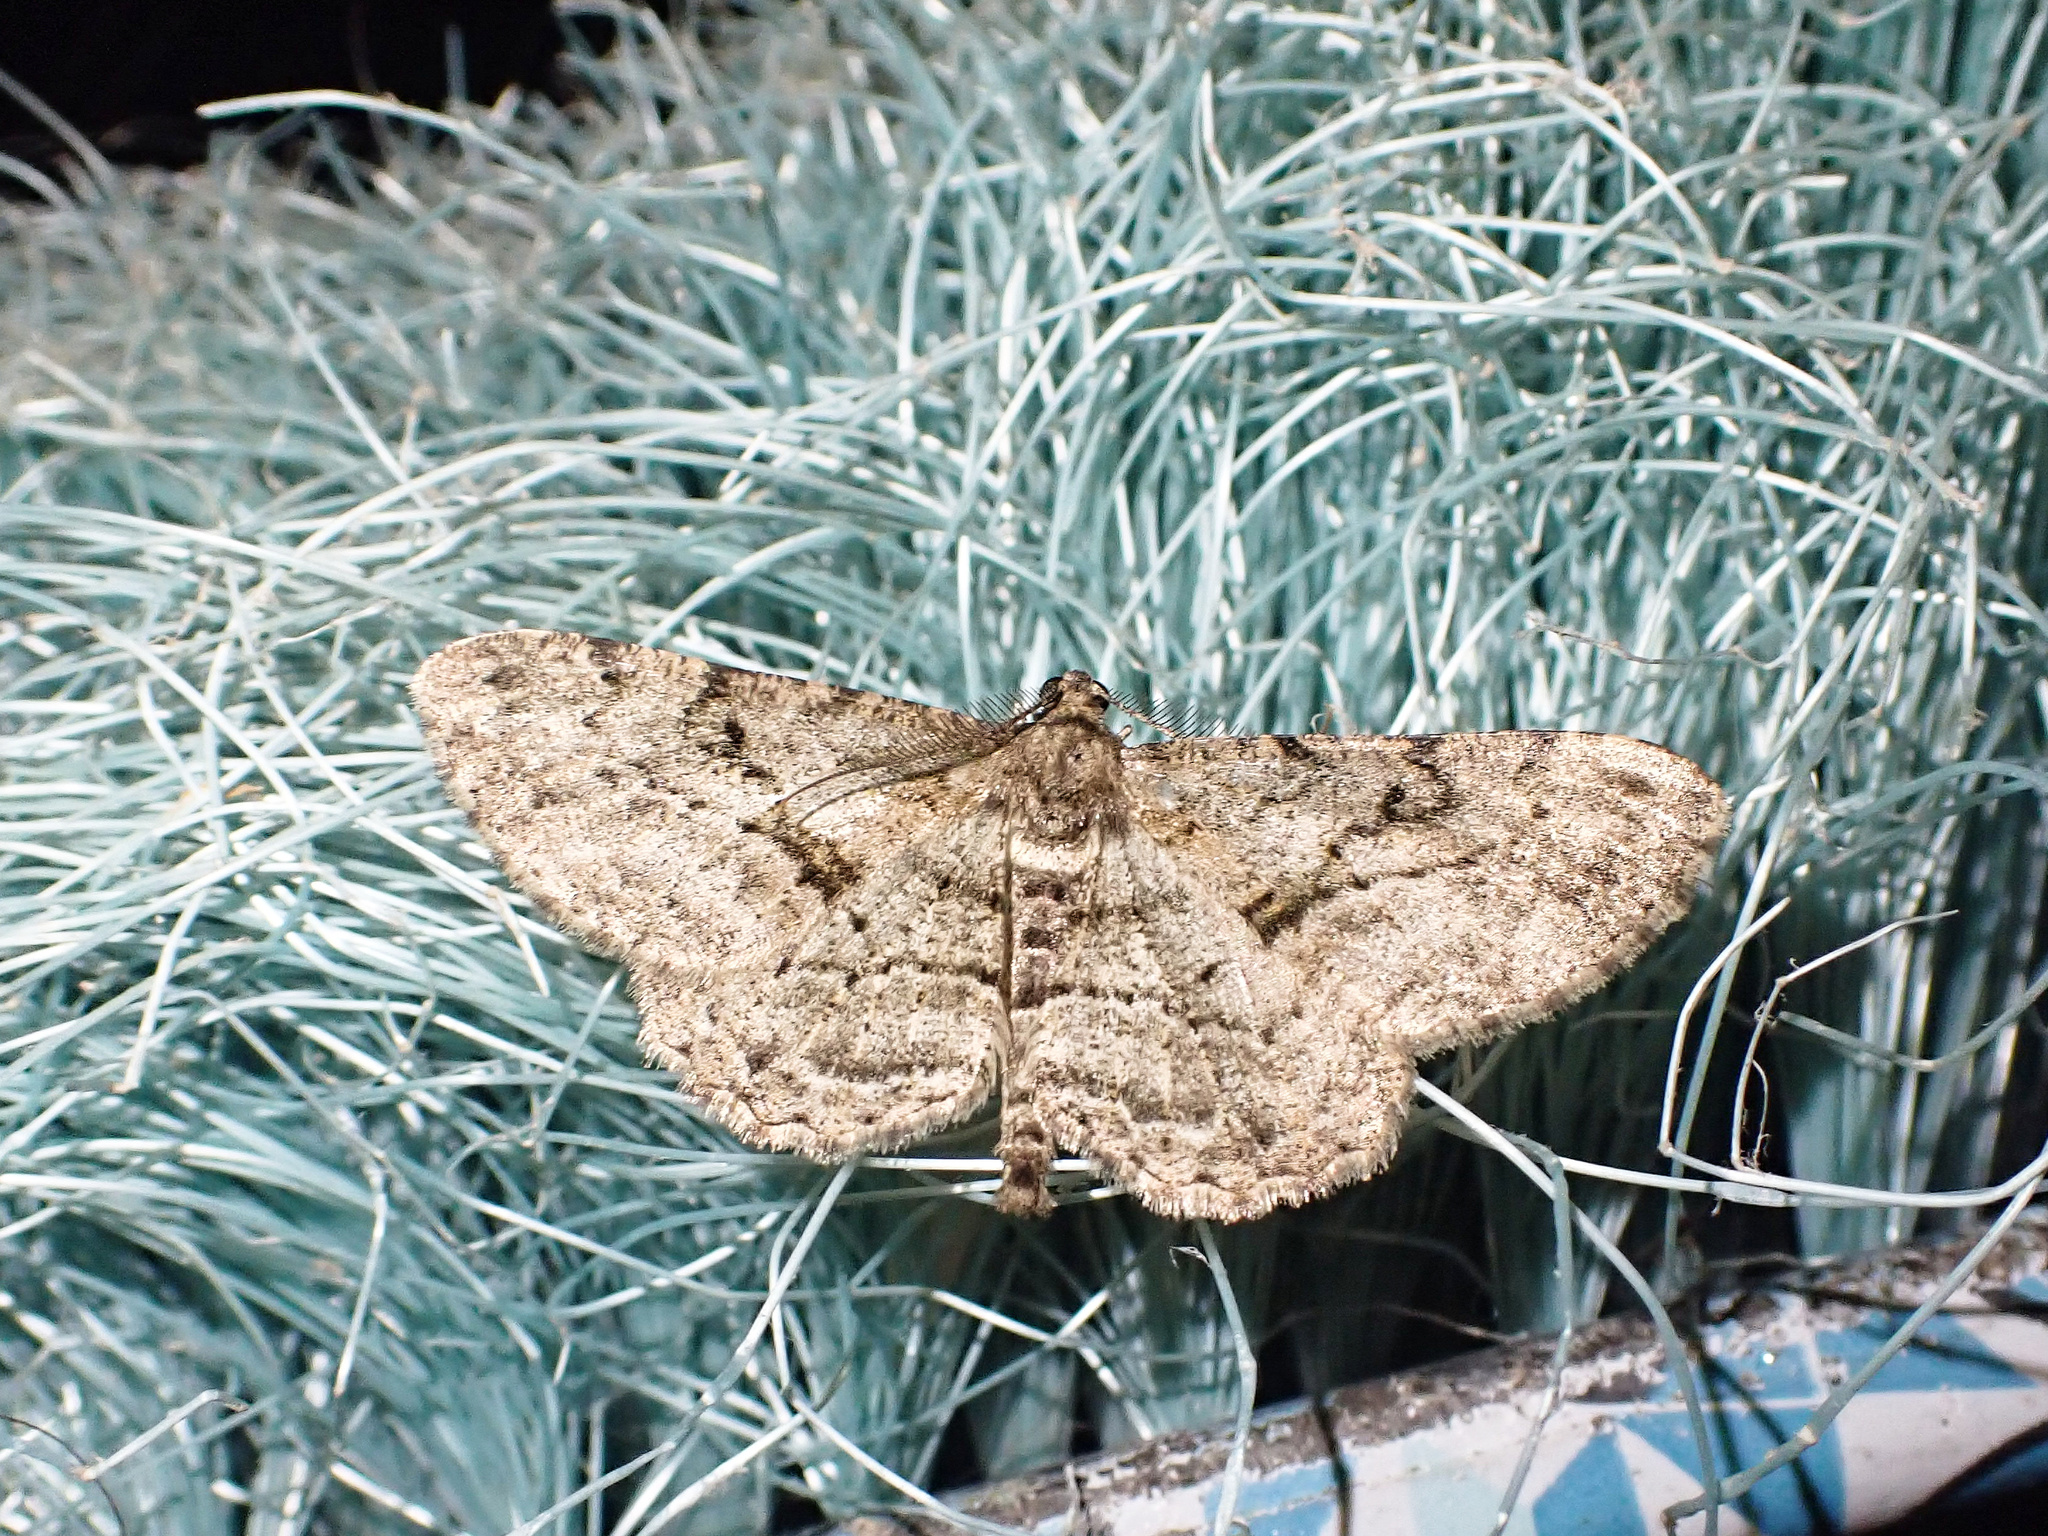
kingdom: Animalia
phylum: Arthropoda
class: Insecta
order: Lepidoptera
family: Geometridae
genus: Peribatodes
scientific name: Peribatodes rhomboidaria
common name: Willow beauty
